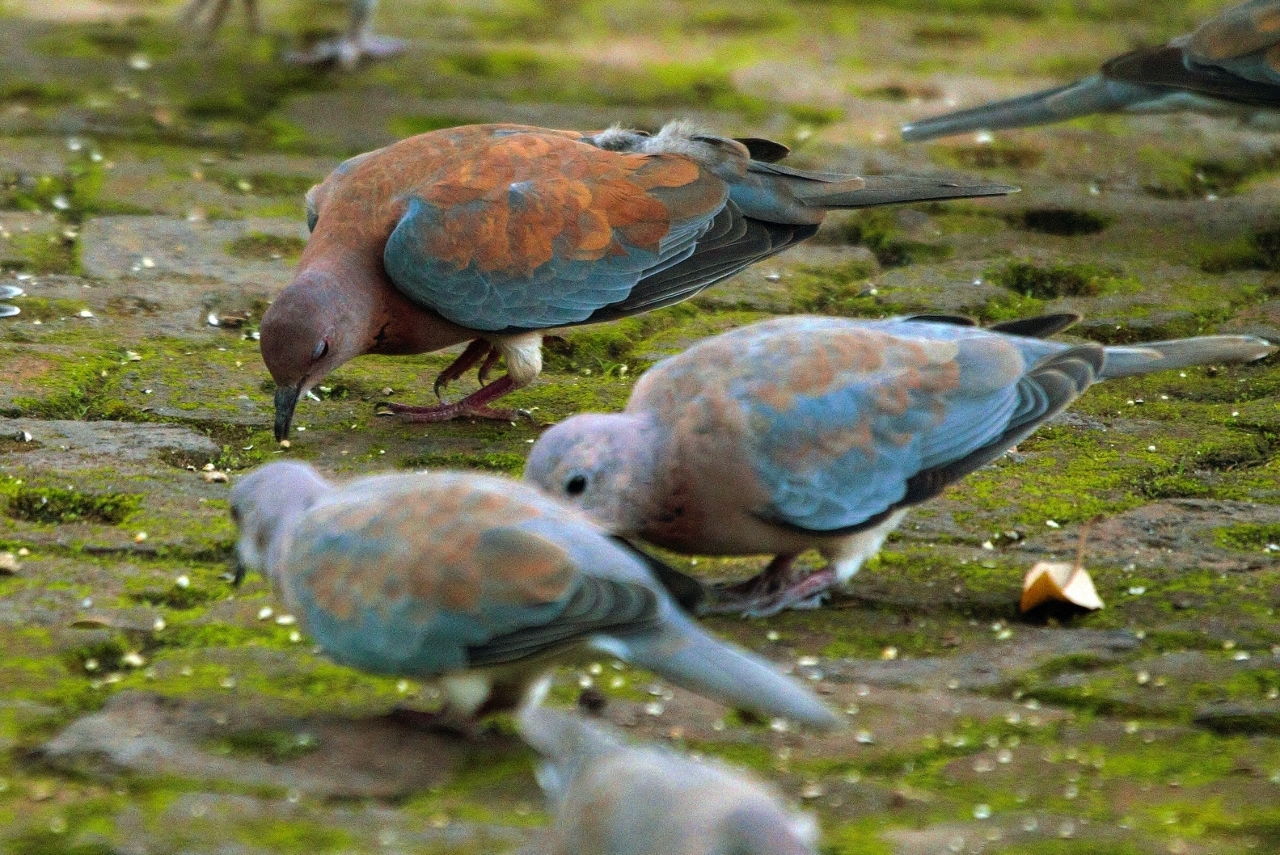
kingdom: Animalia
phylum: Chordata
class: Aves
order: Columbiformes
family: Columbidae
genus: Spilopelia
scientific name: Spilopelia senegalensis
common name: Laughing dove
